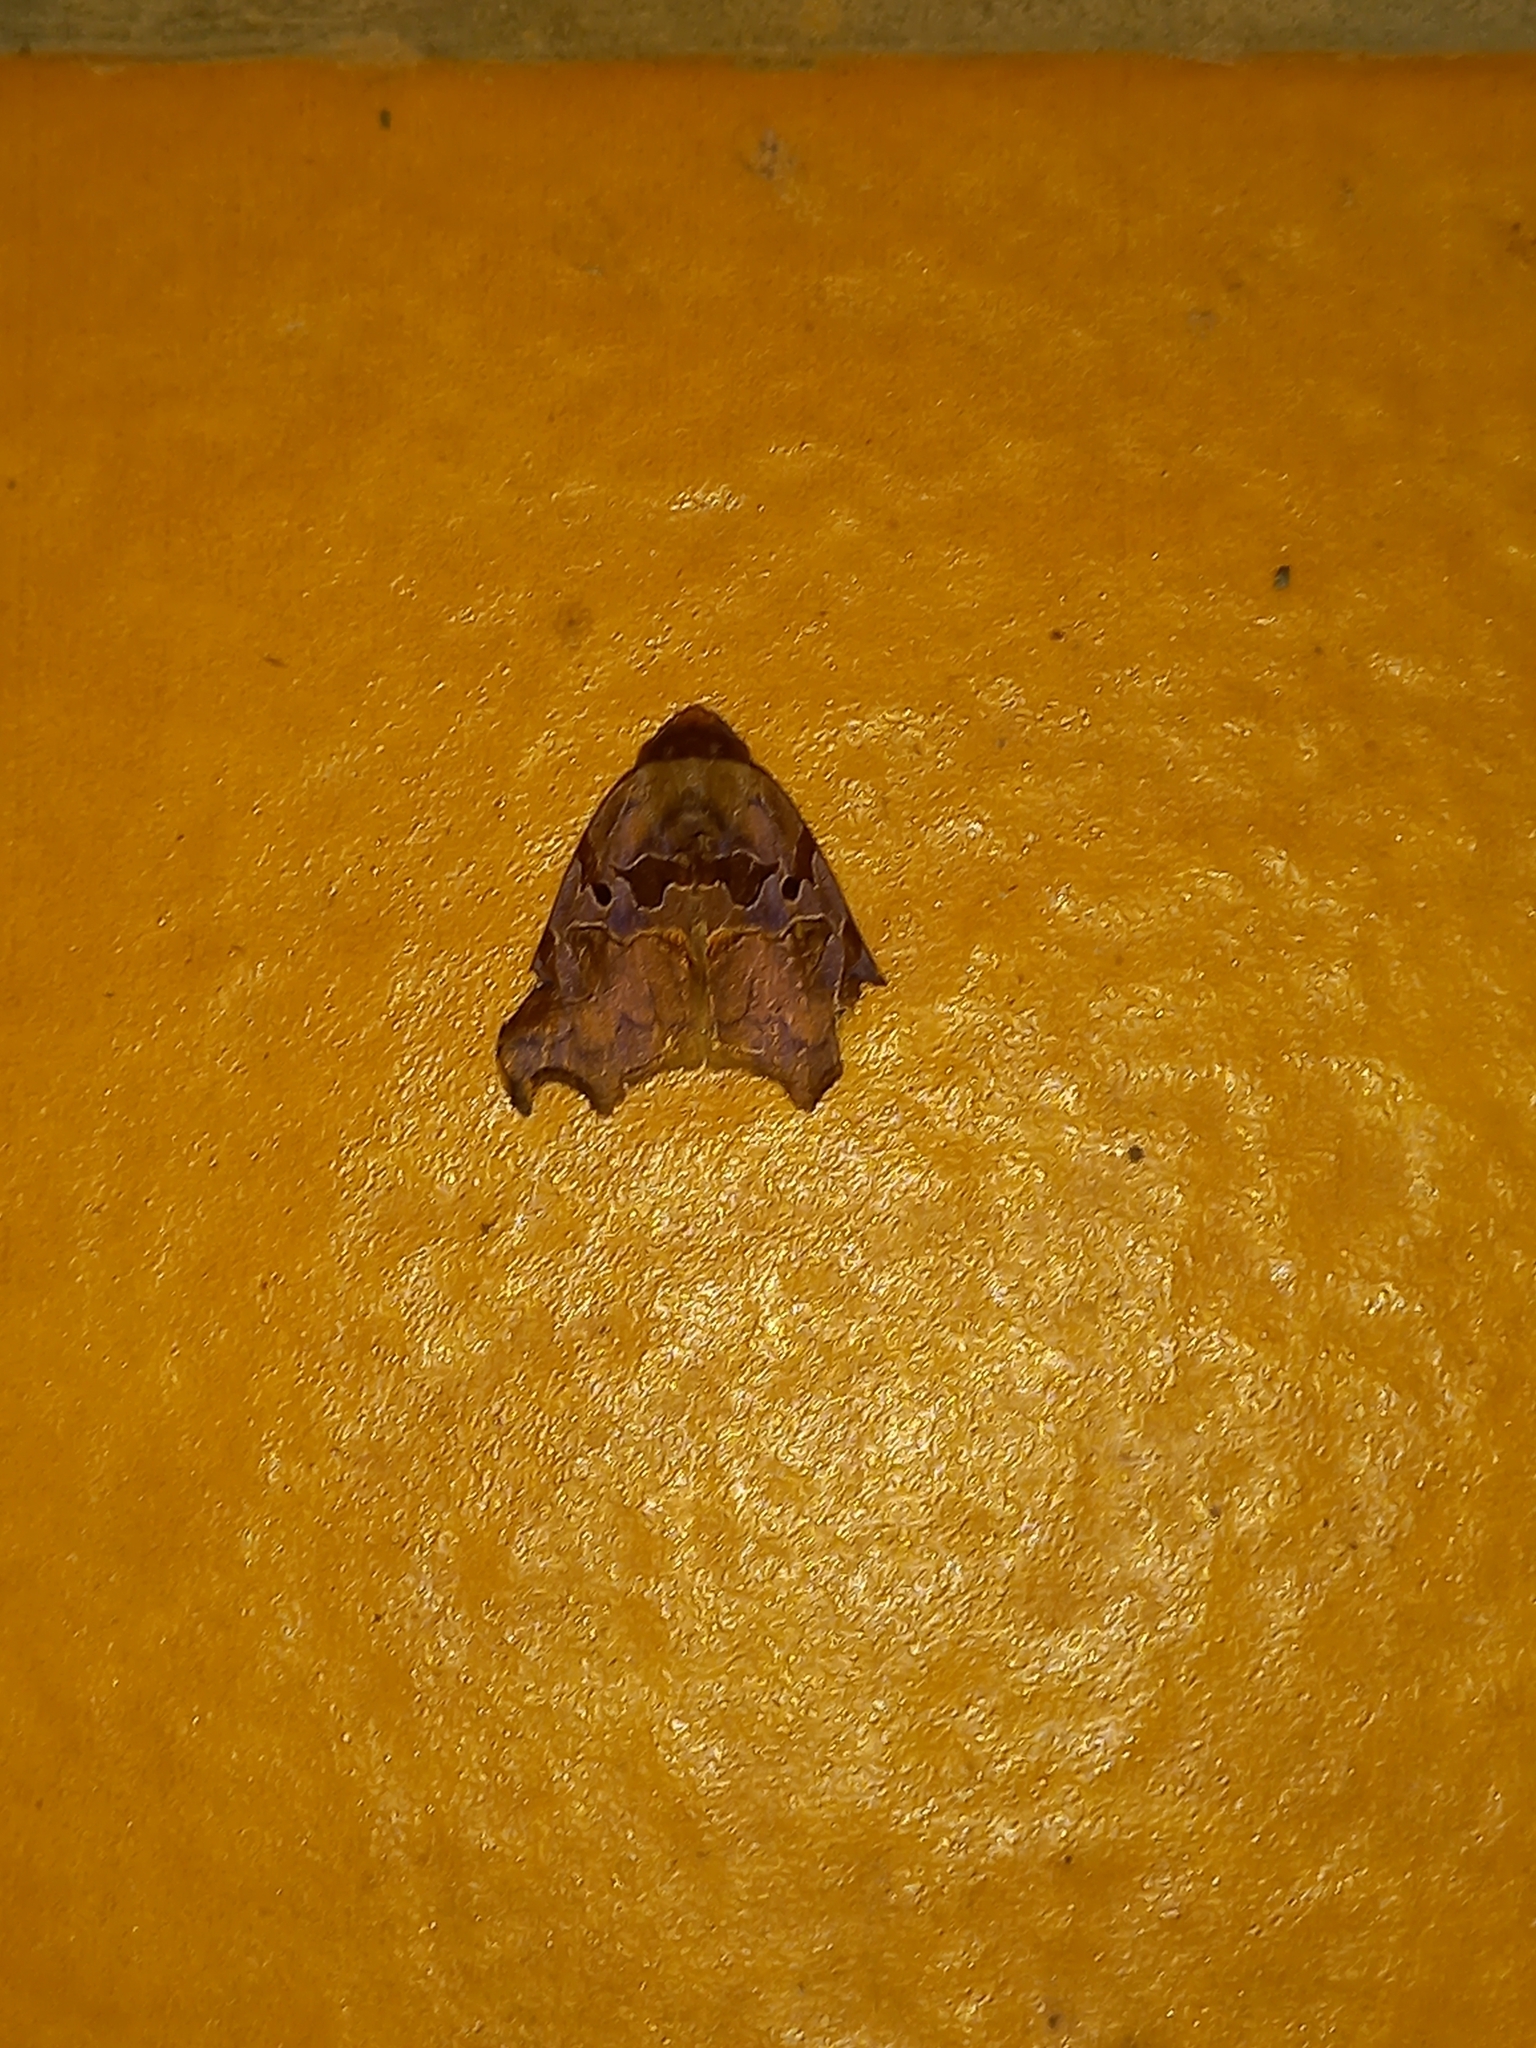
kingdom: Animalia
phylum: Arthropoda
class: Insecta
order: Lepidoptera
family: Erebidae
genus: Lephana
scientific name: Lephana excisata
